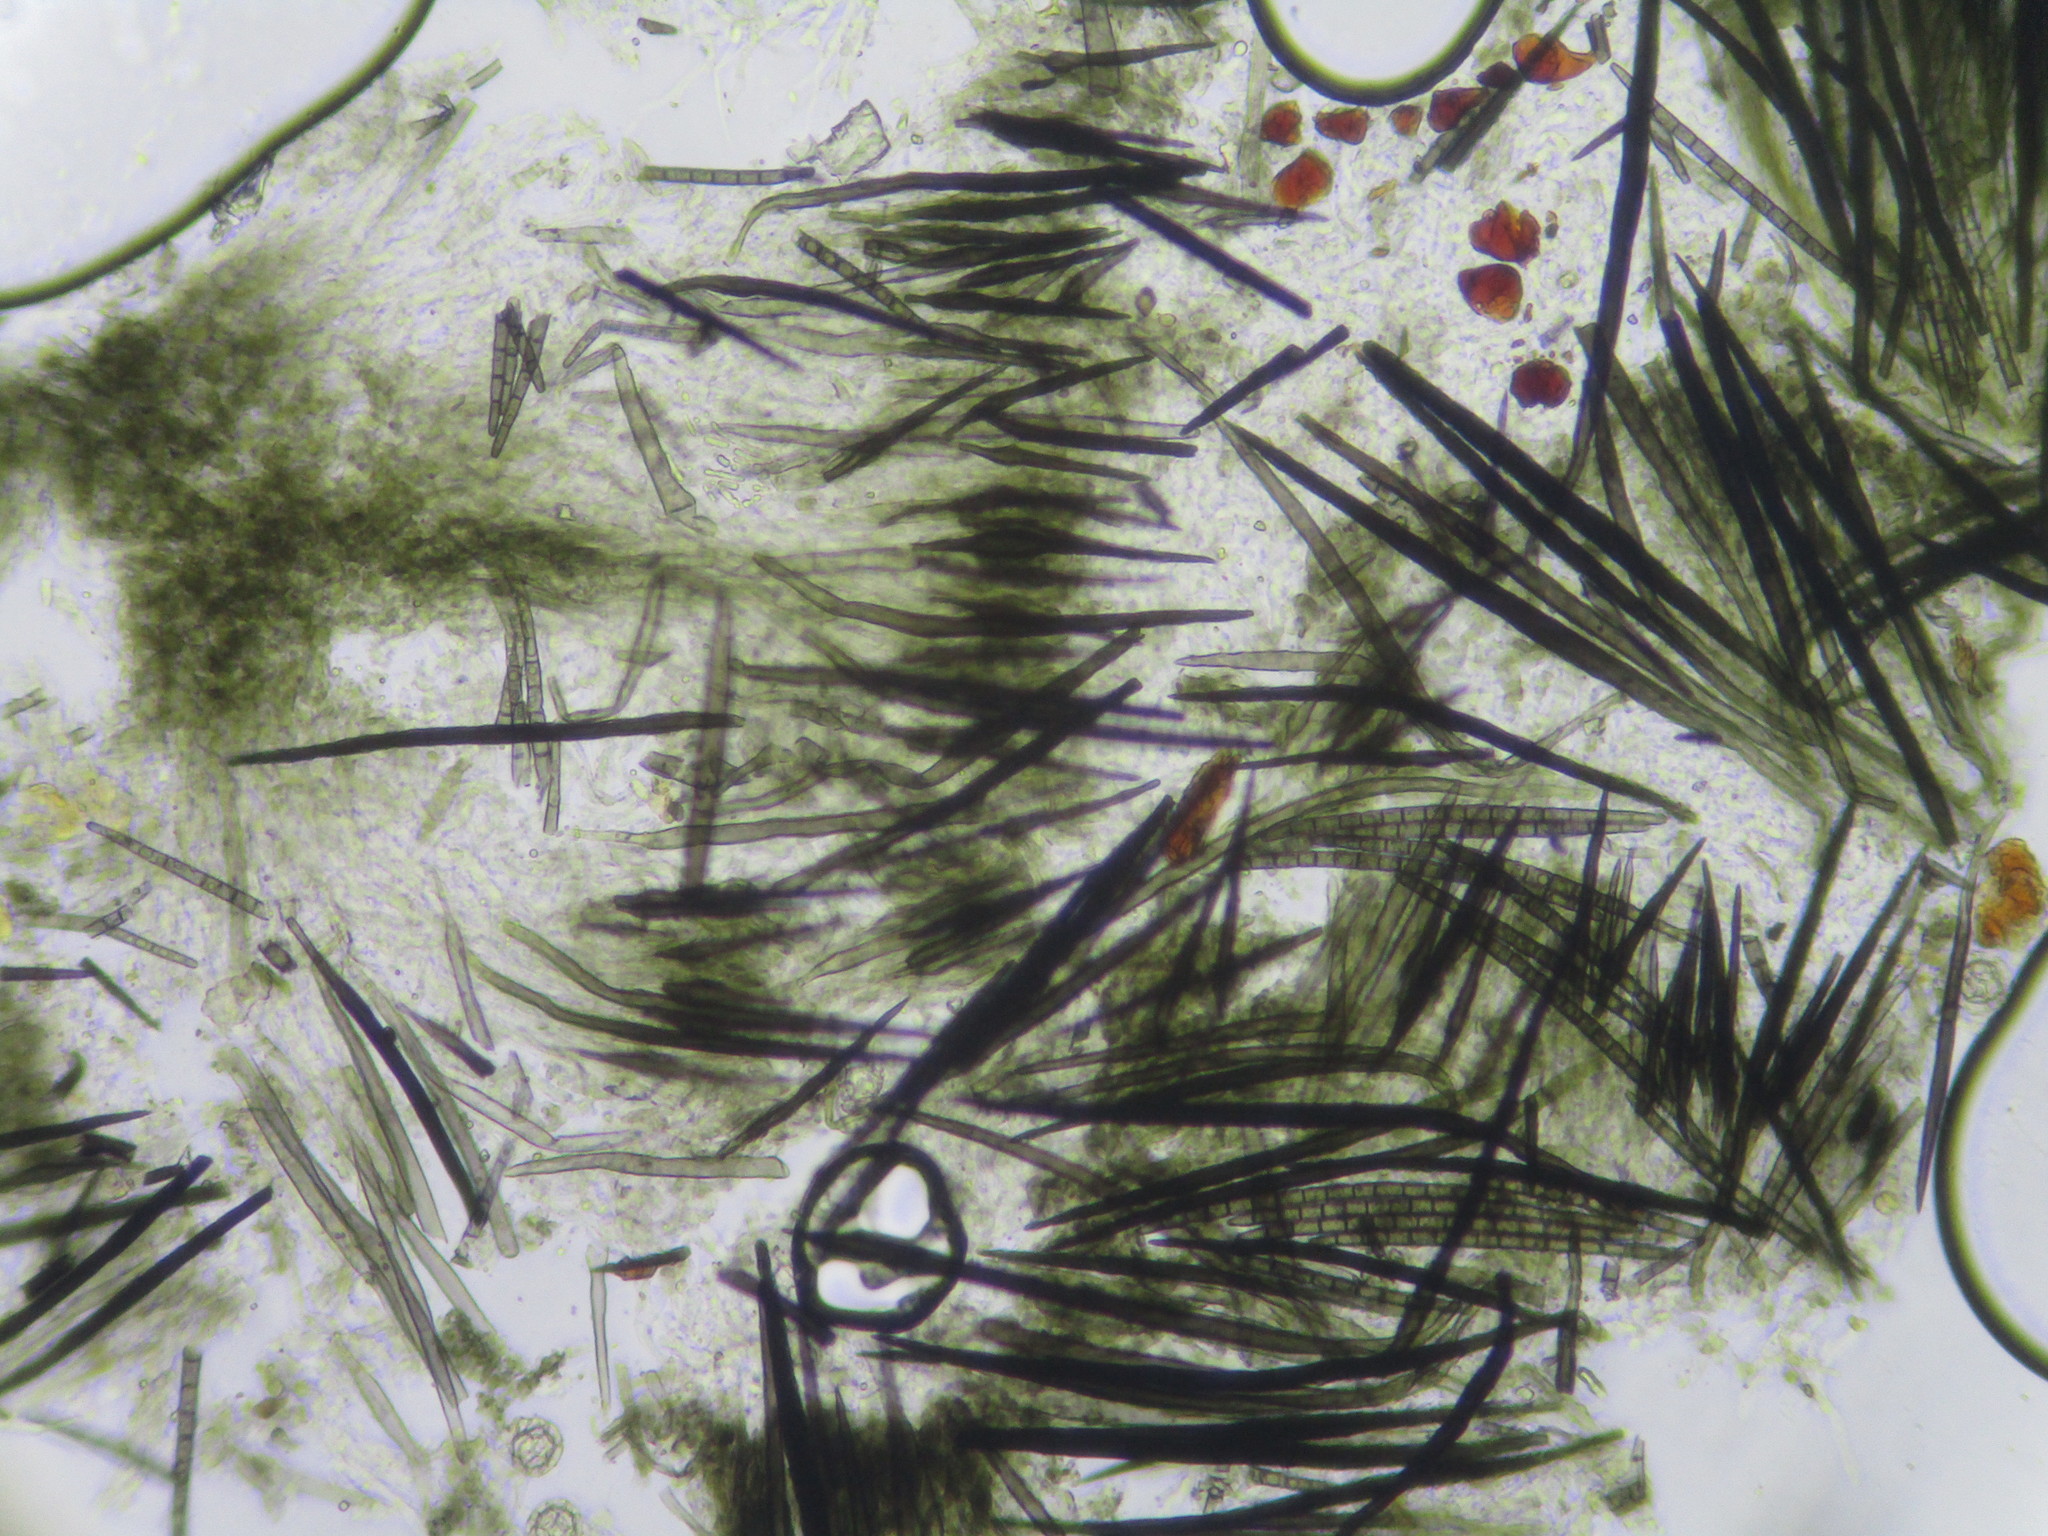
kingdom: Fungi
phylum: Ascomycota
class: Sordariomycetes
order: Hypocreales
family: Hypocreaceae
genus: Hypomyces
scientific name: Hypomyces papulasporae
